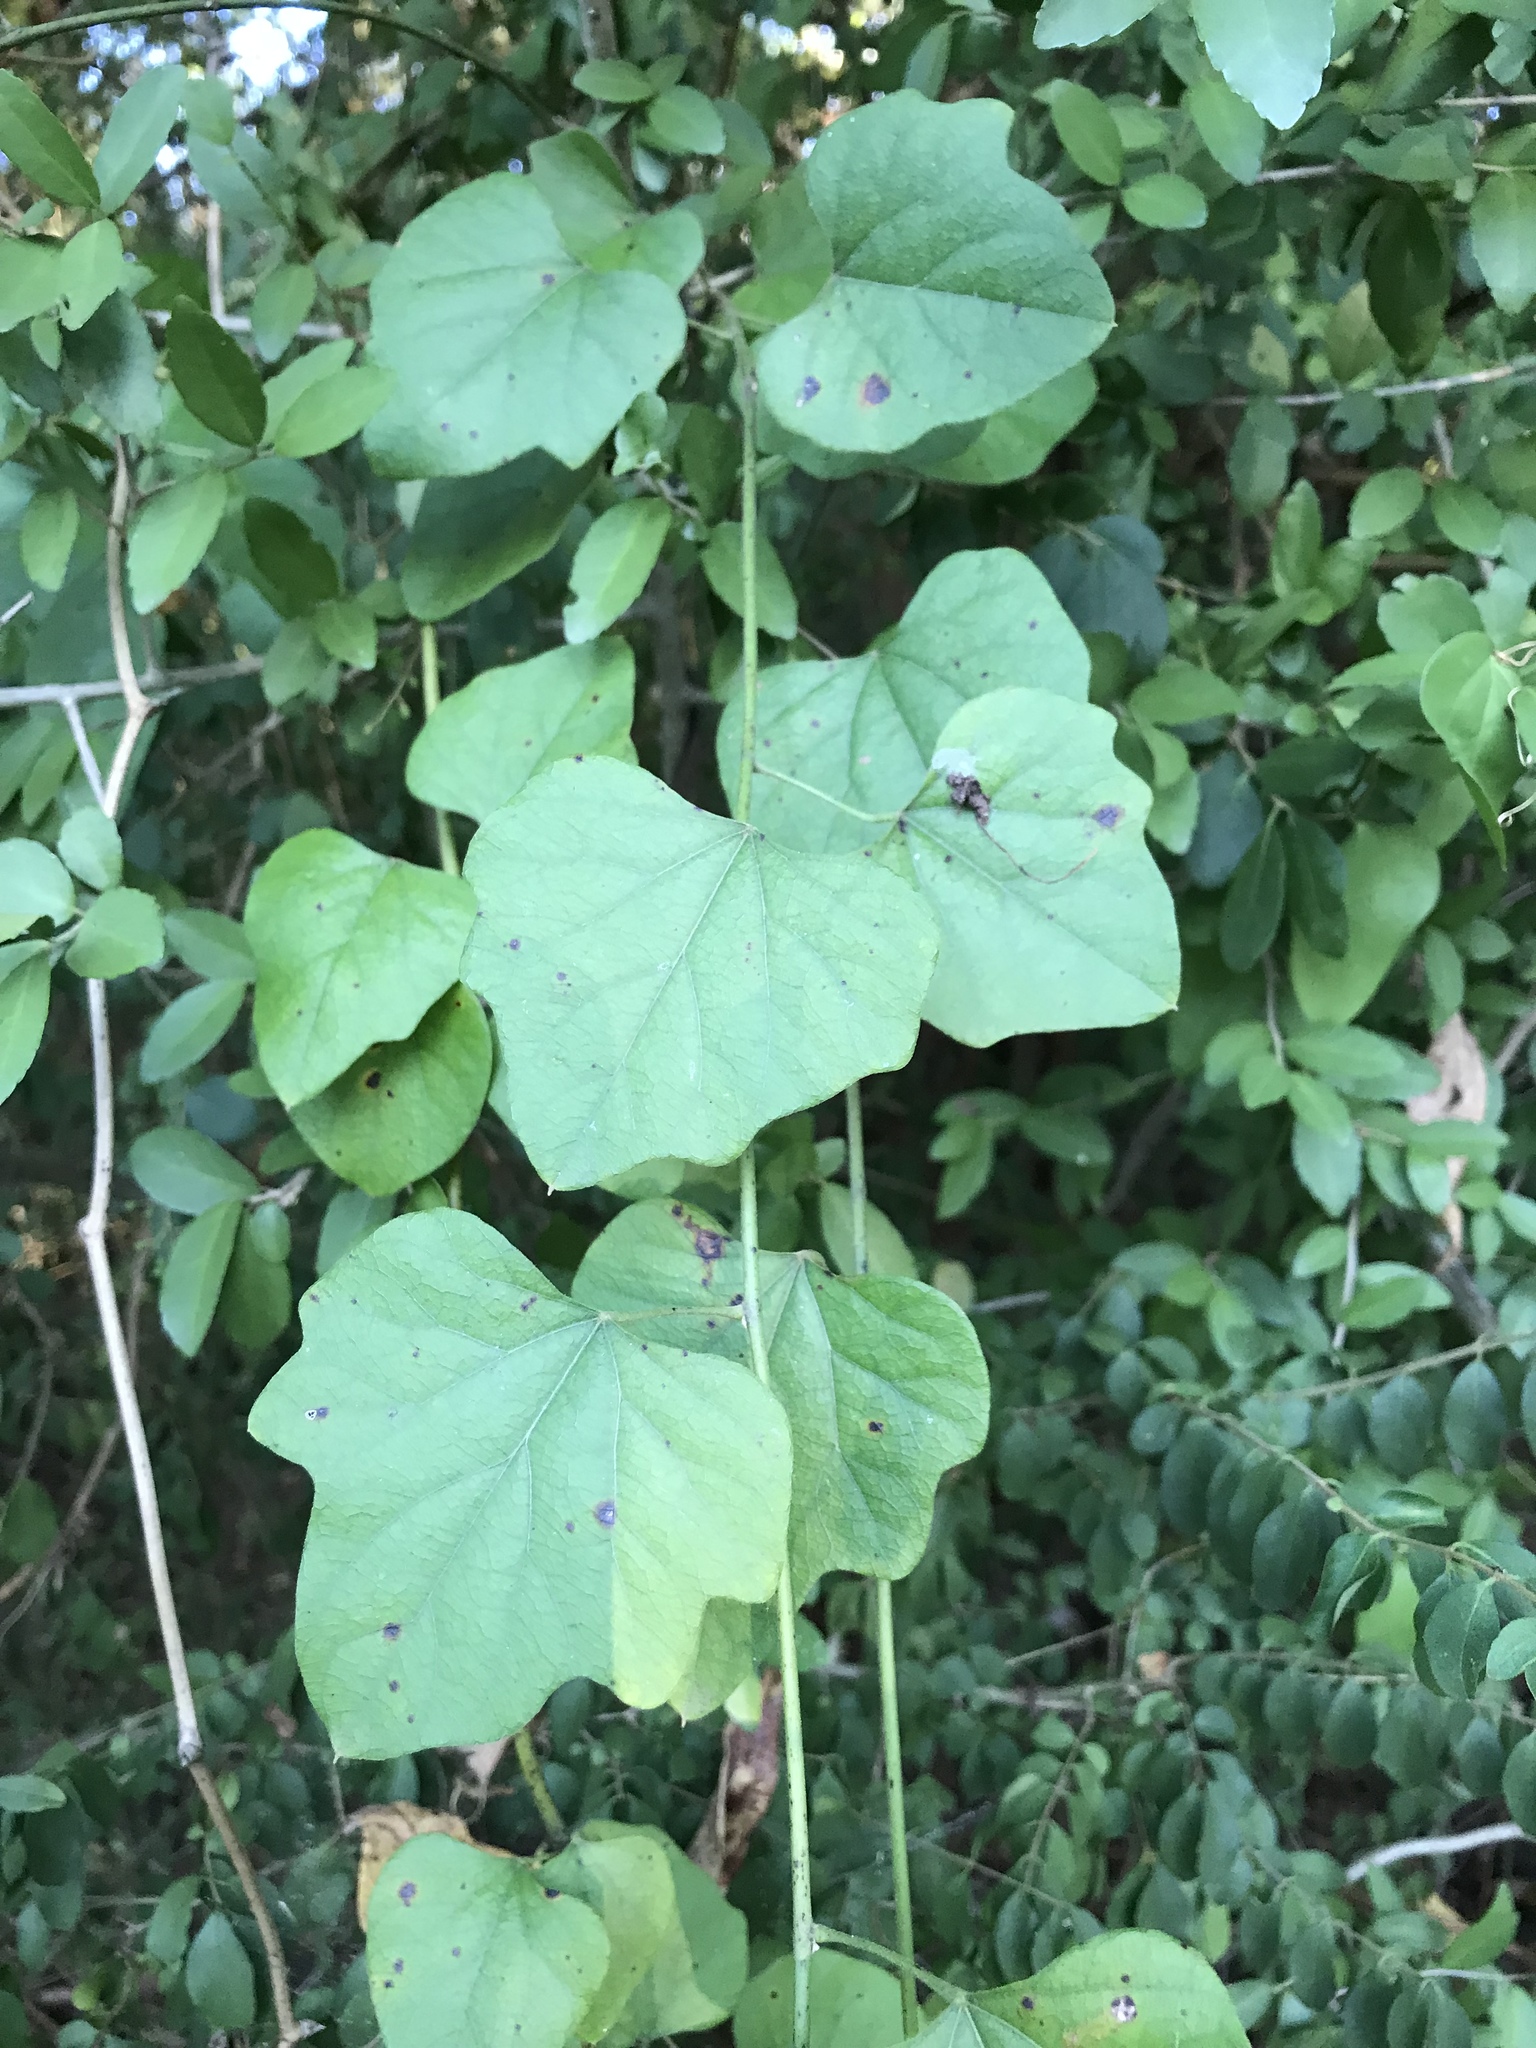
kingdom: Plantae
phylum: Tracheophyta
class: Magnoliopsida
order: Ranunculales
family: Menispermaceae
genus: Cocculus
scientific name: Cocculus carolinus
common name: Carolina moonseed
